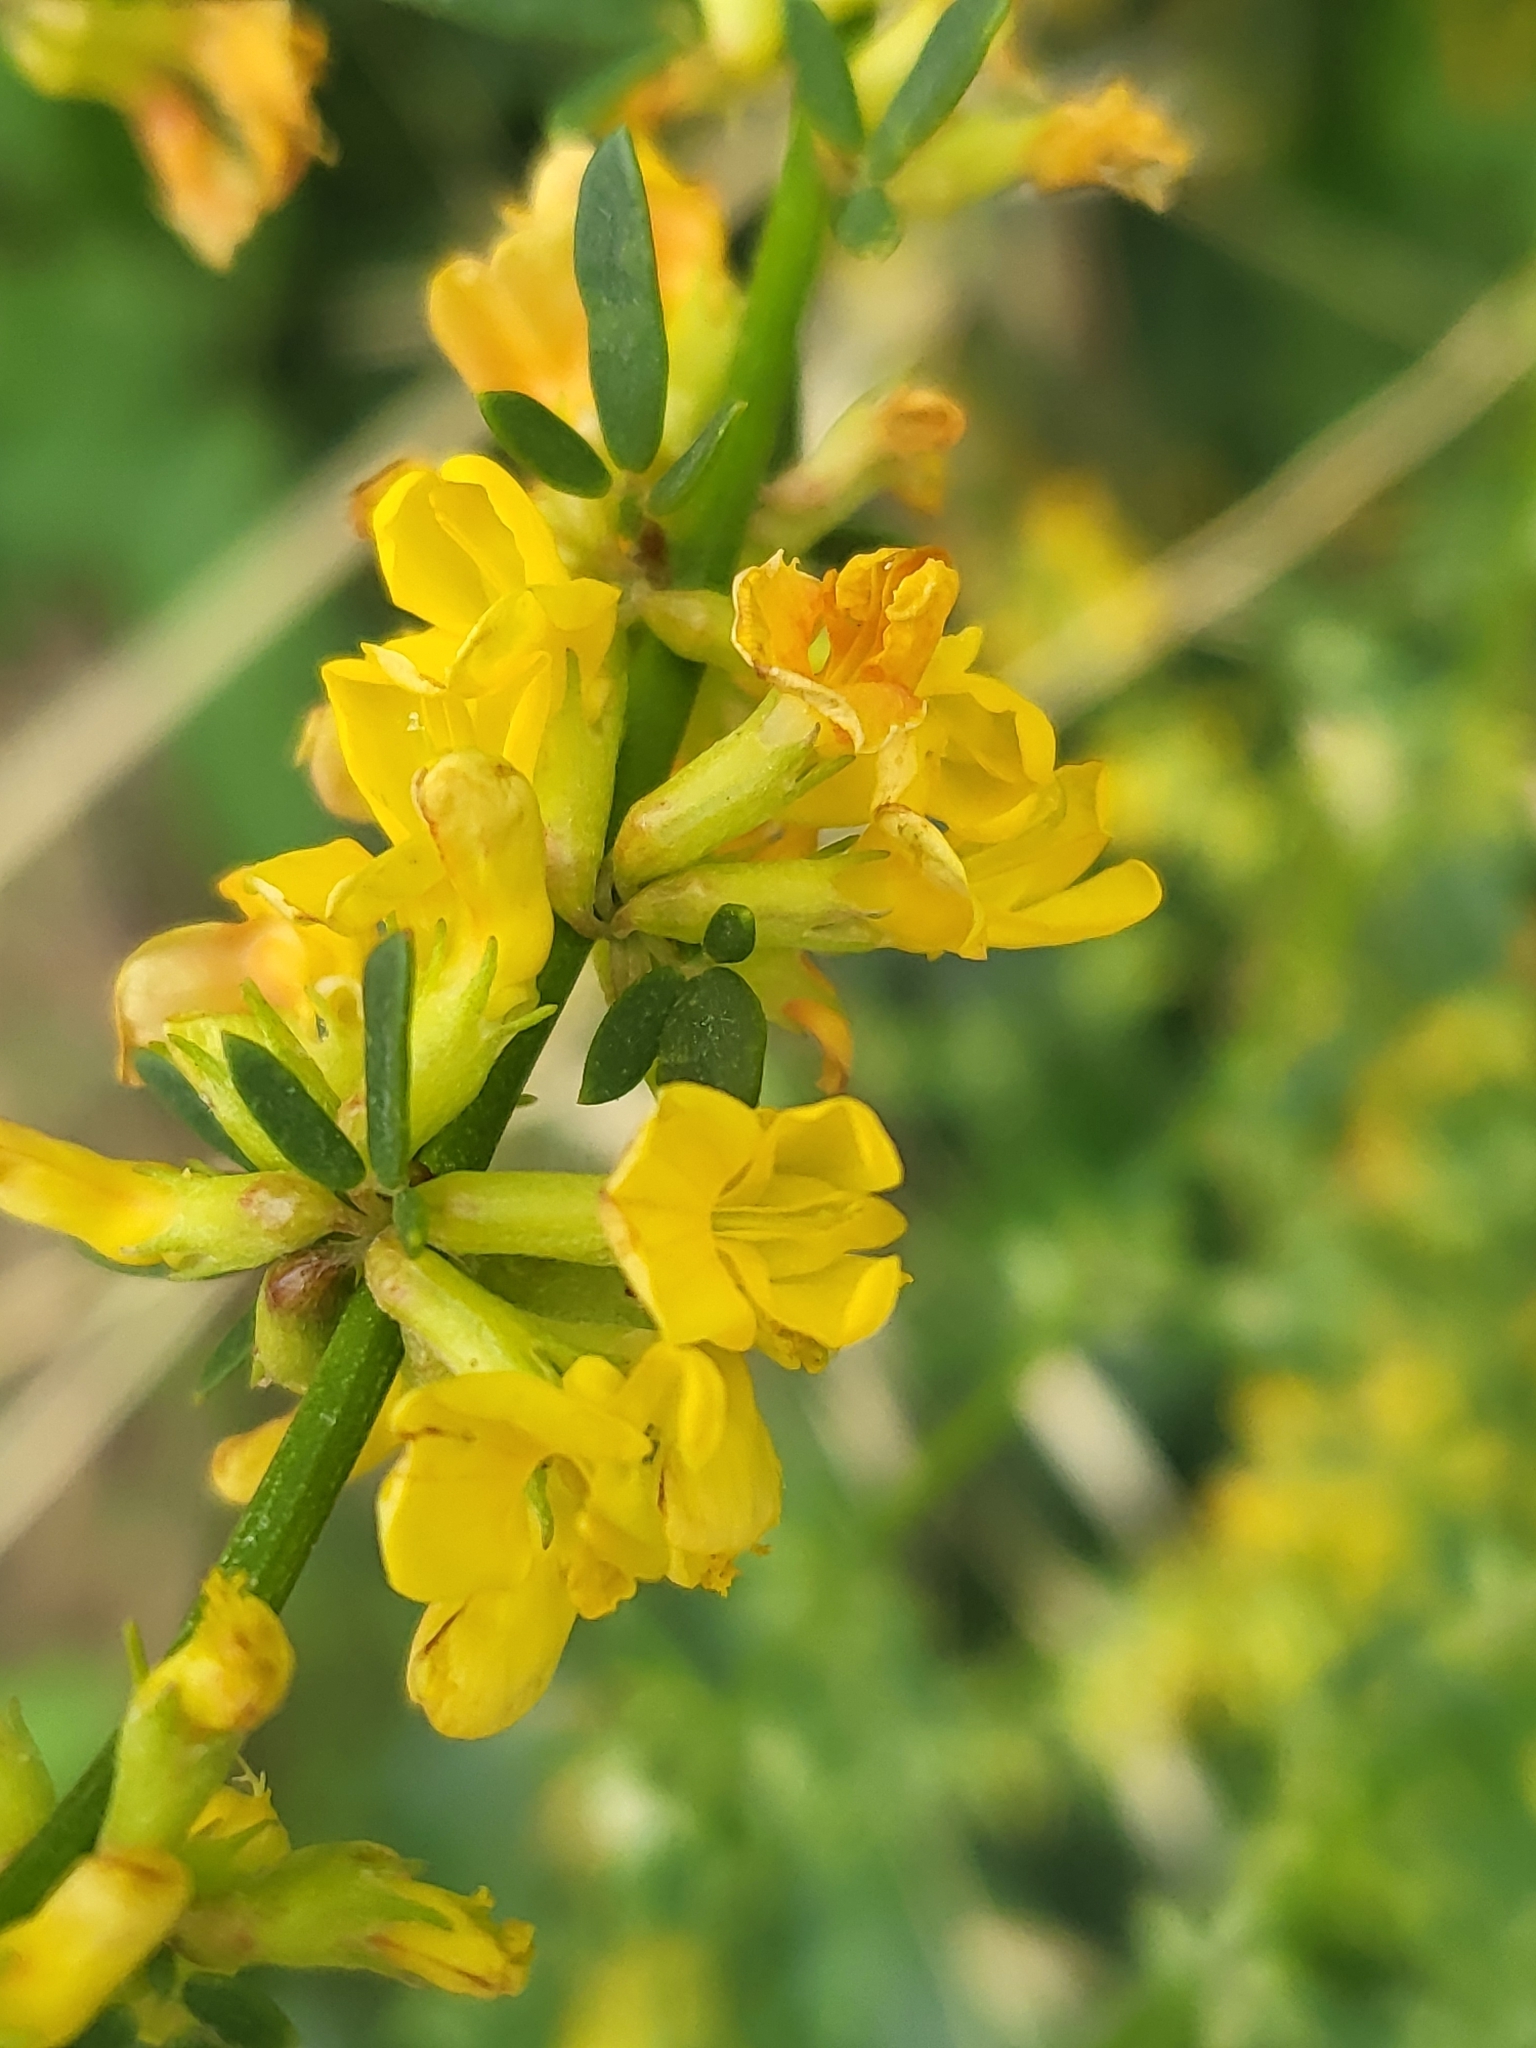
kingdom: Plantae
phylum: Tracheophyta
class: Magnoliopsida
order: Fabales
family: Fabaceae
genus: Acmispon
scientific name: Acmispon glaber
